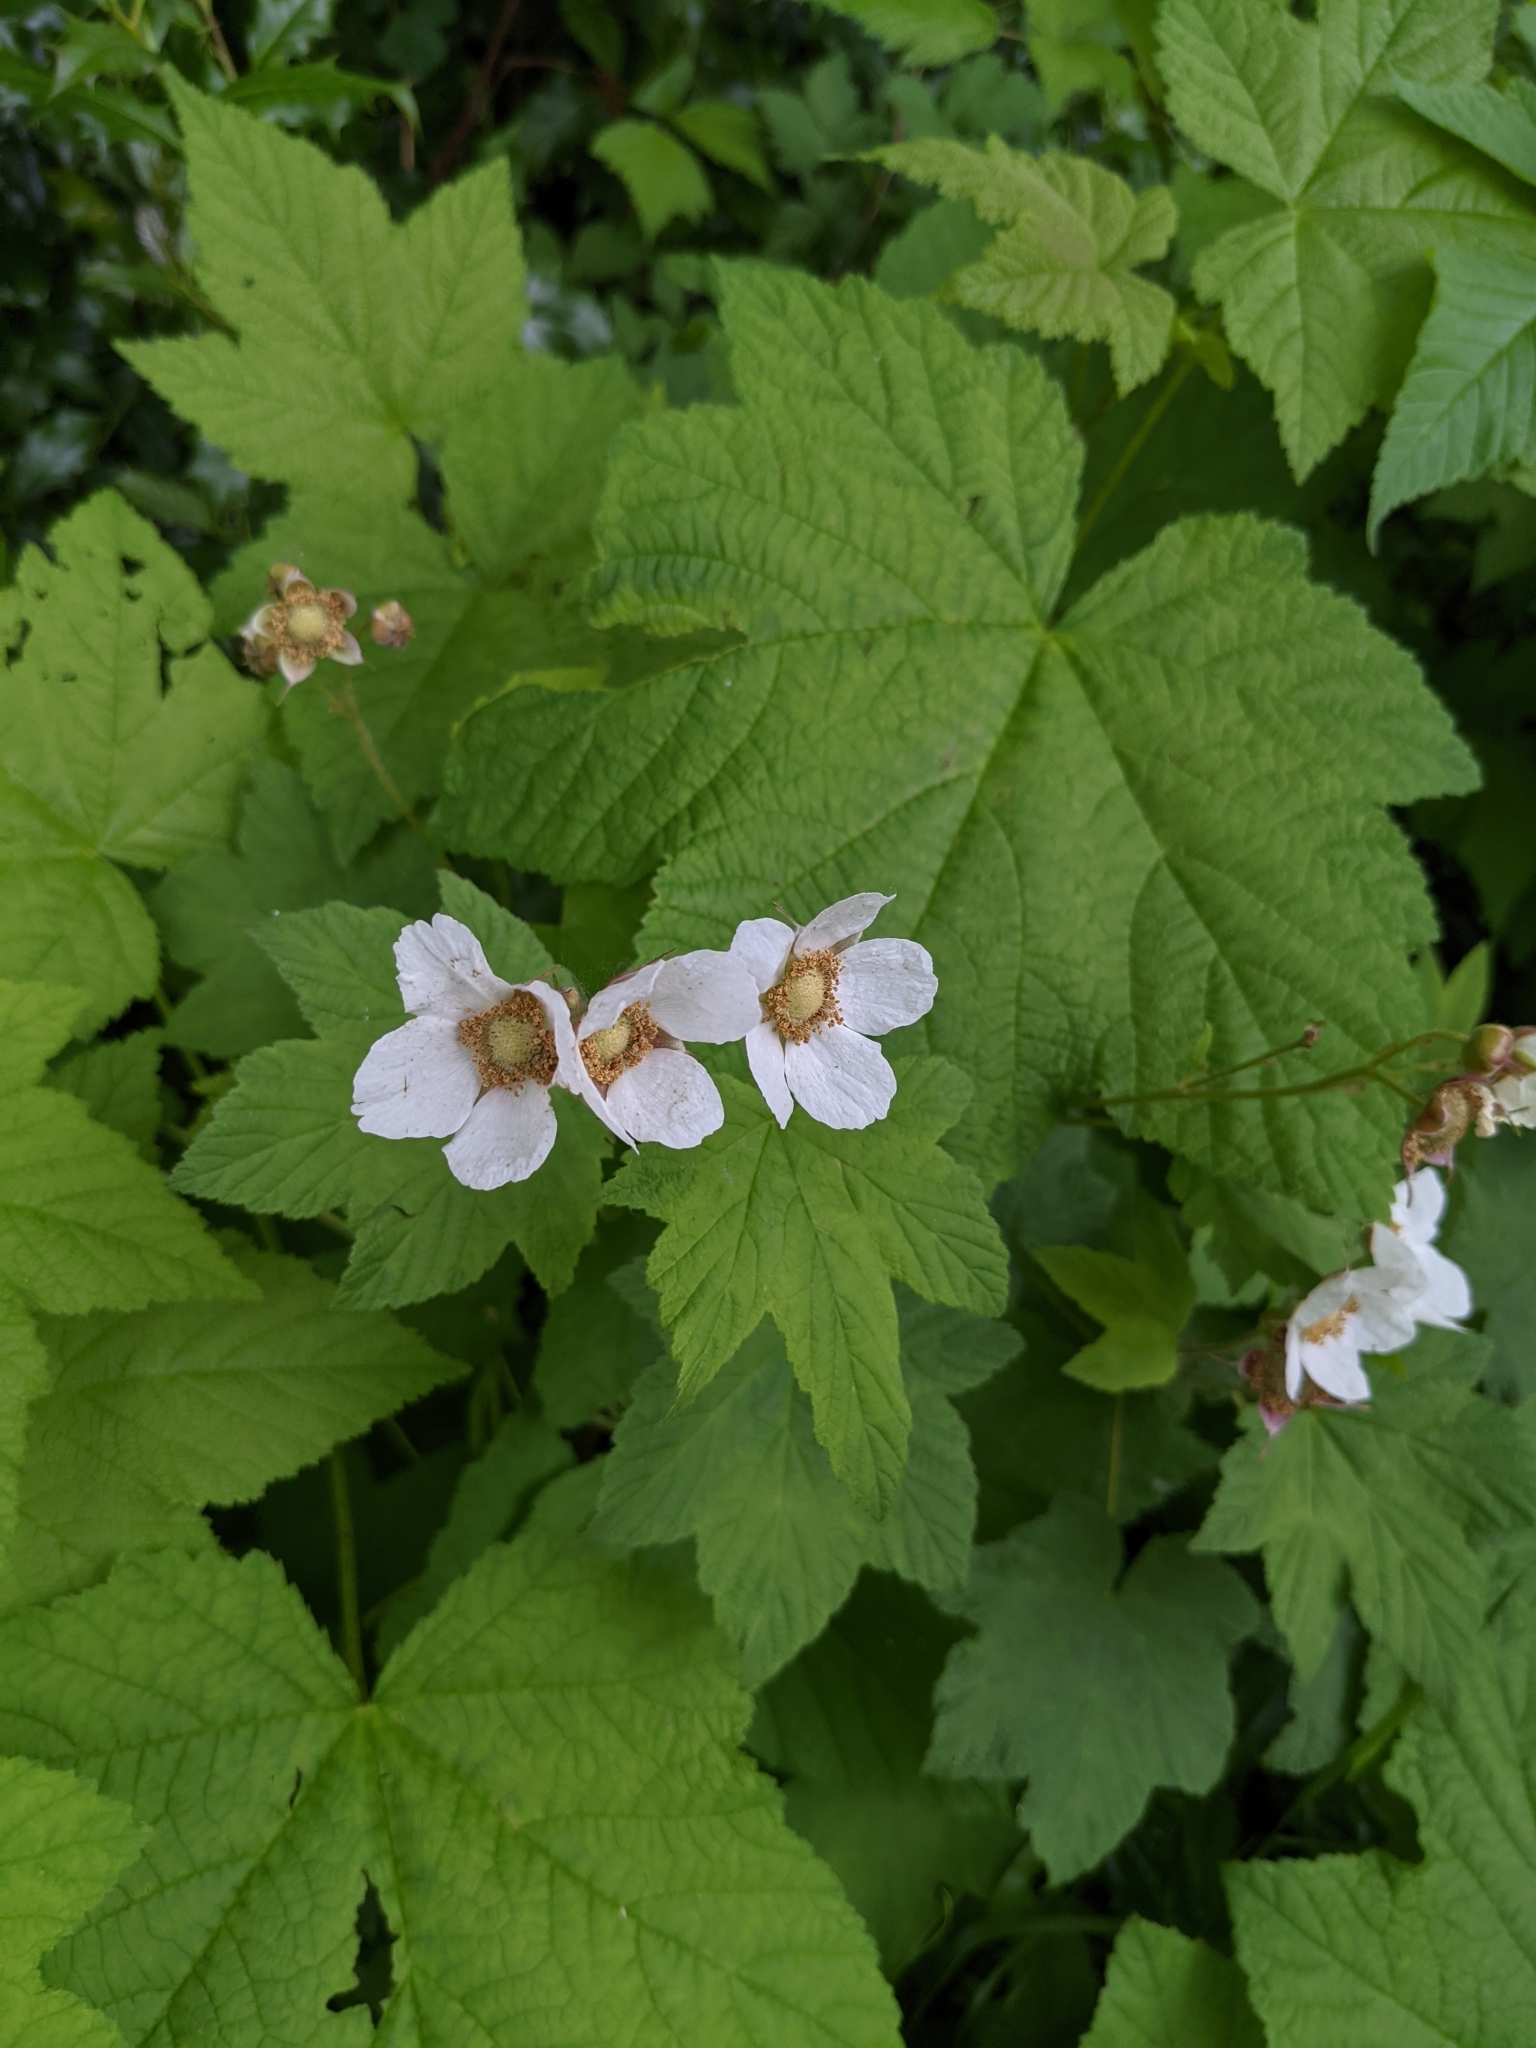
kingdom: Plantae
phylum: Tracheophyta
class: Magnoliopsida
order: Rosales
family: Rosaceae
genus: Rubus
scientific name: Rubus parviflorus
